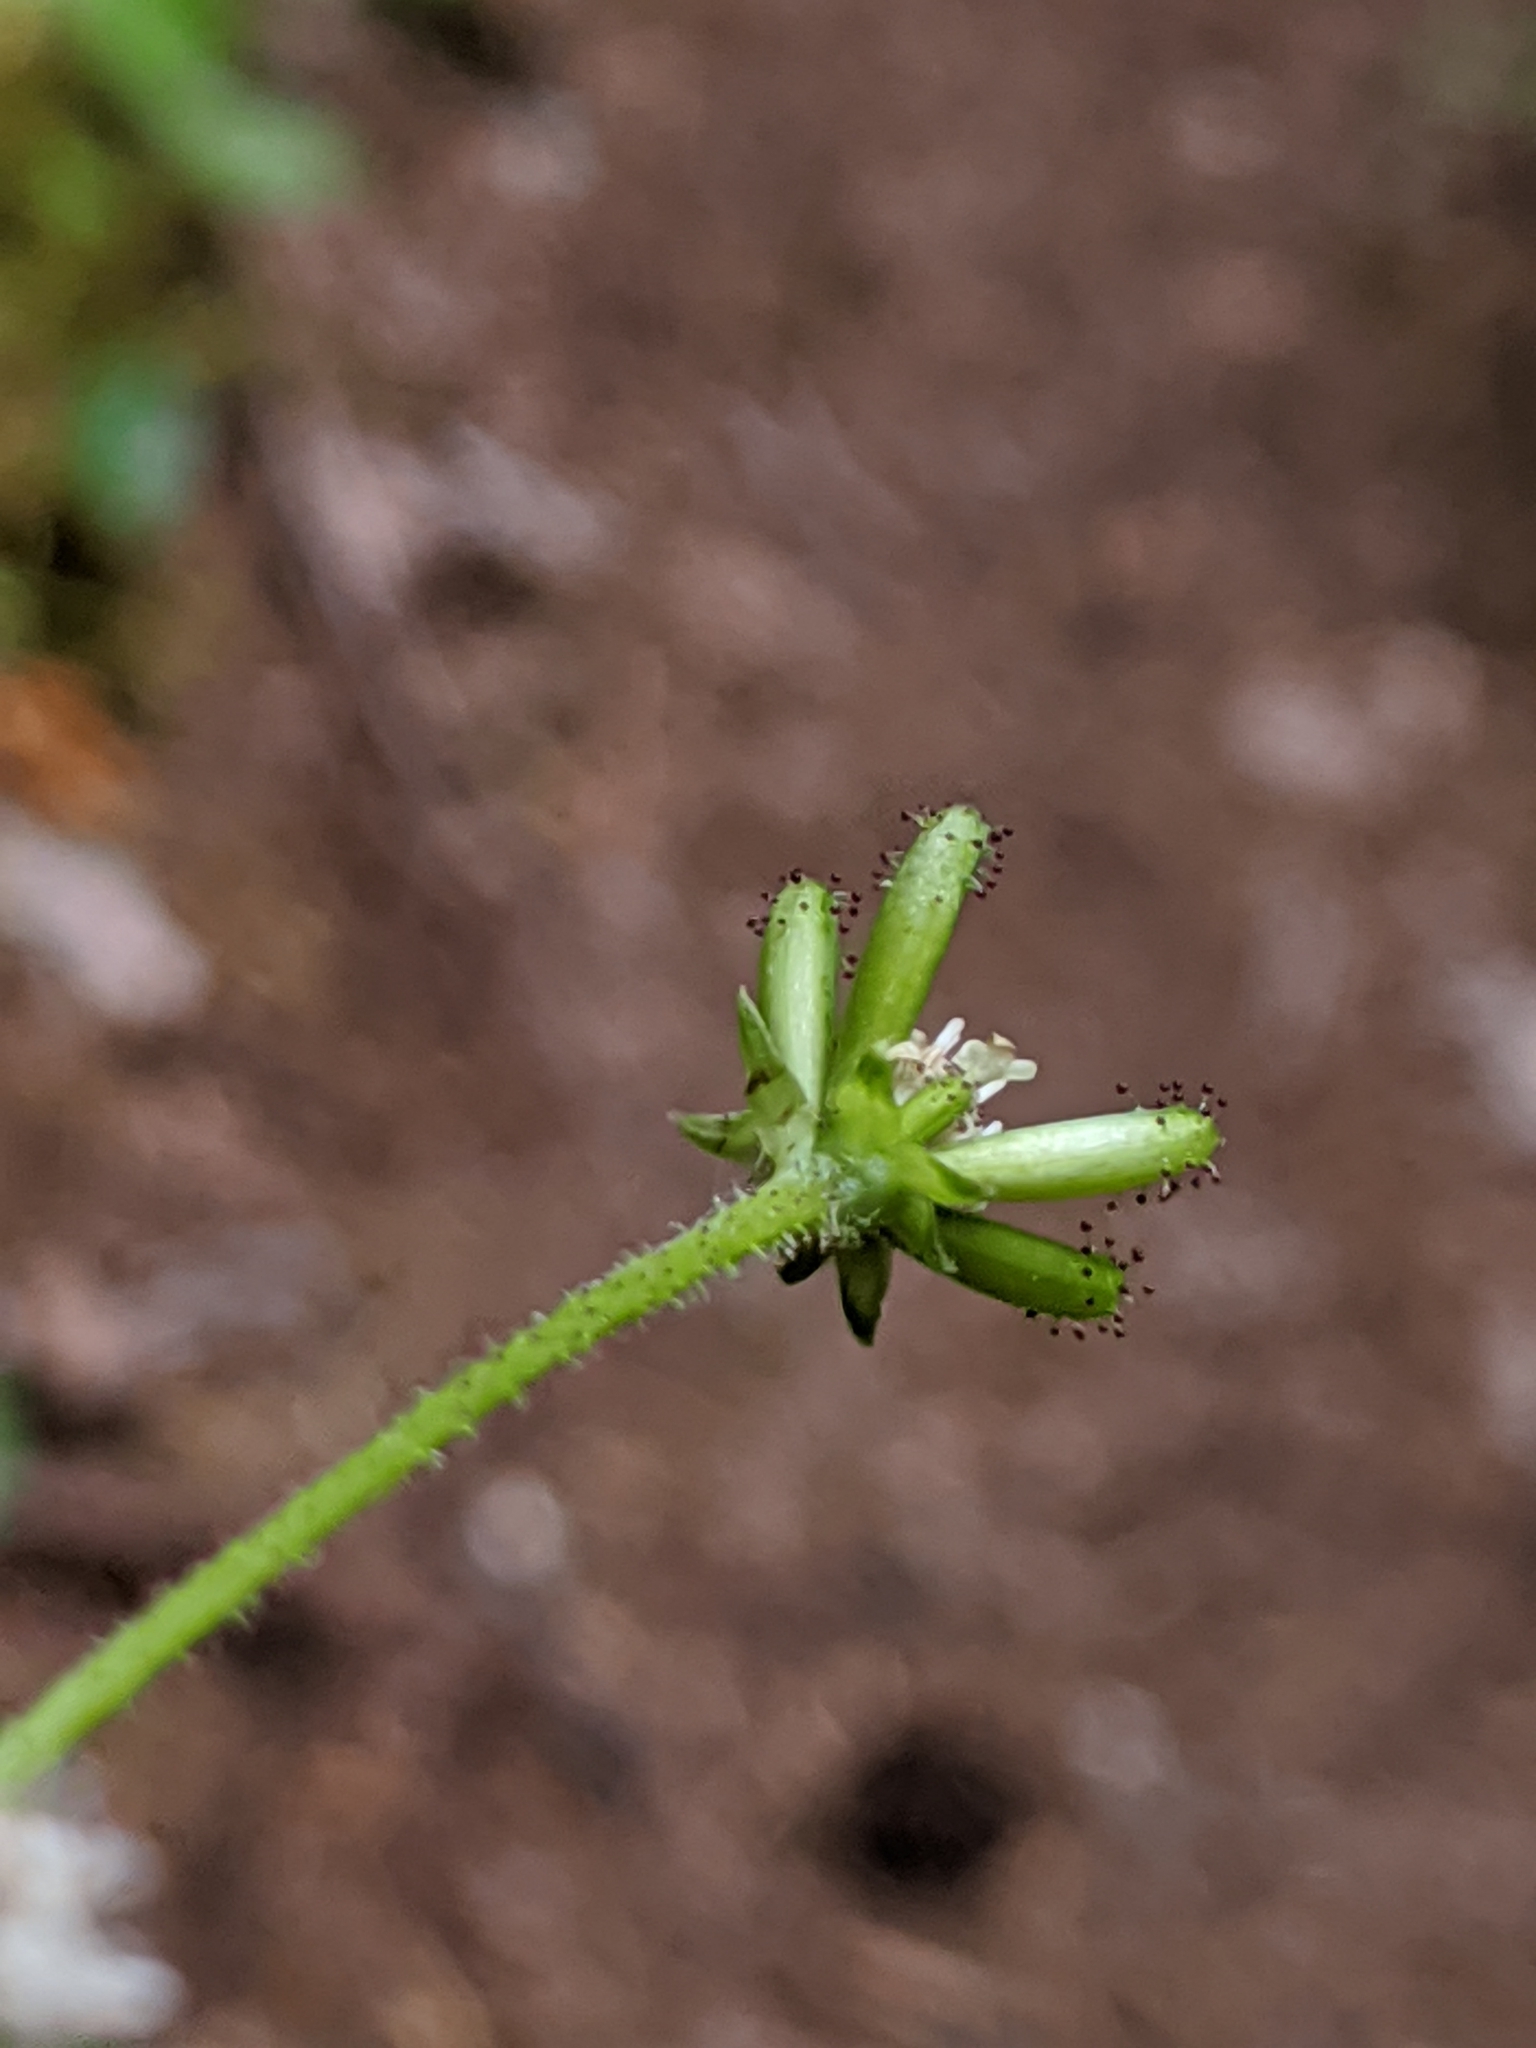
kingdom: Plantae
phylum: Tracheophyta
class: Magnoliopsida
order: Asterales
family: Asteraceae
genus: Adenocaulon
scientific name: Adenocaulon bicolor
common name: Trailplant
